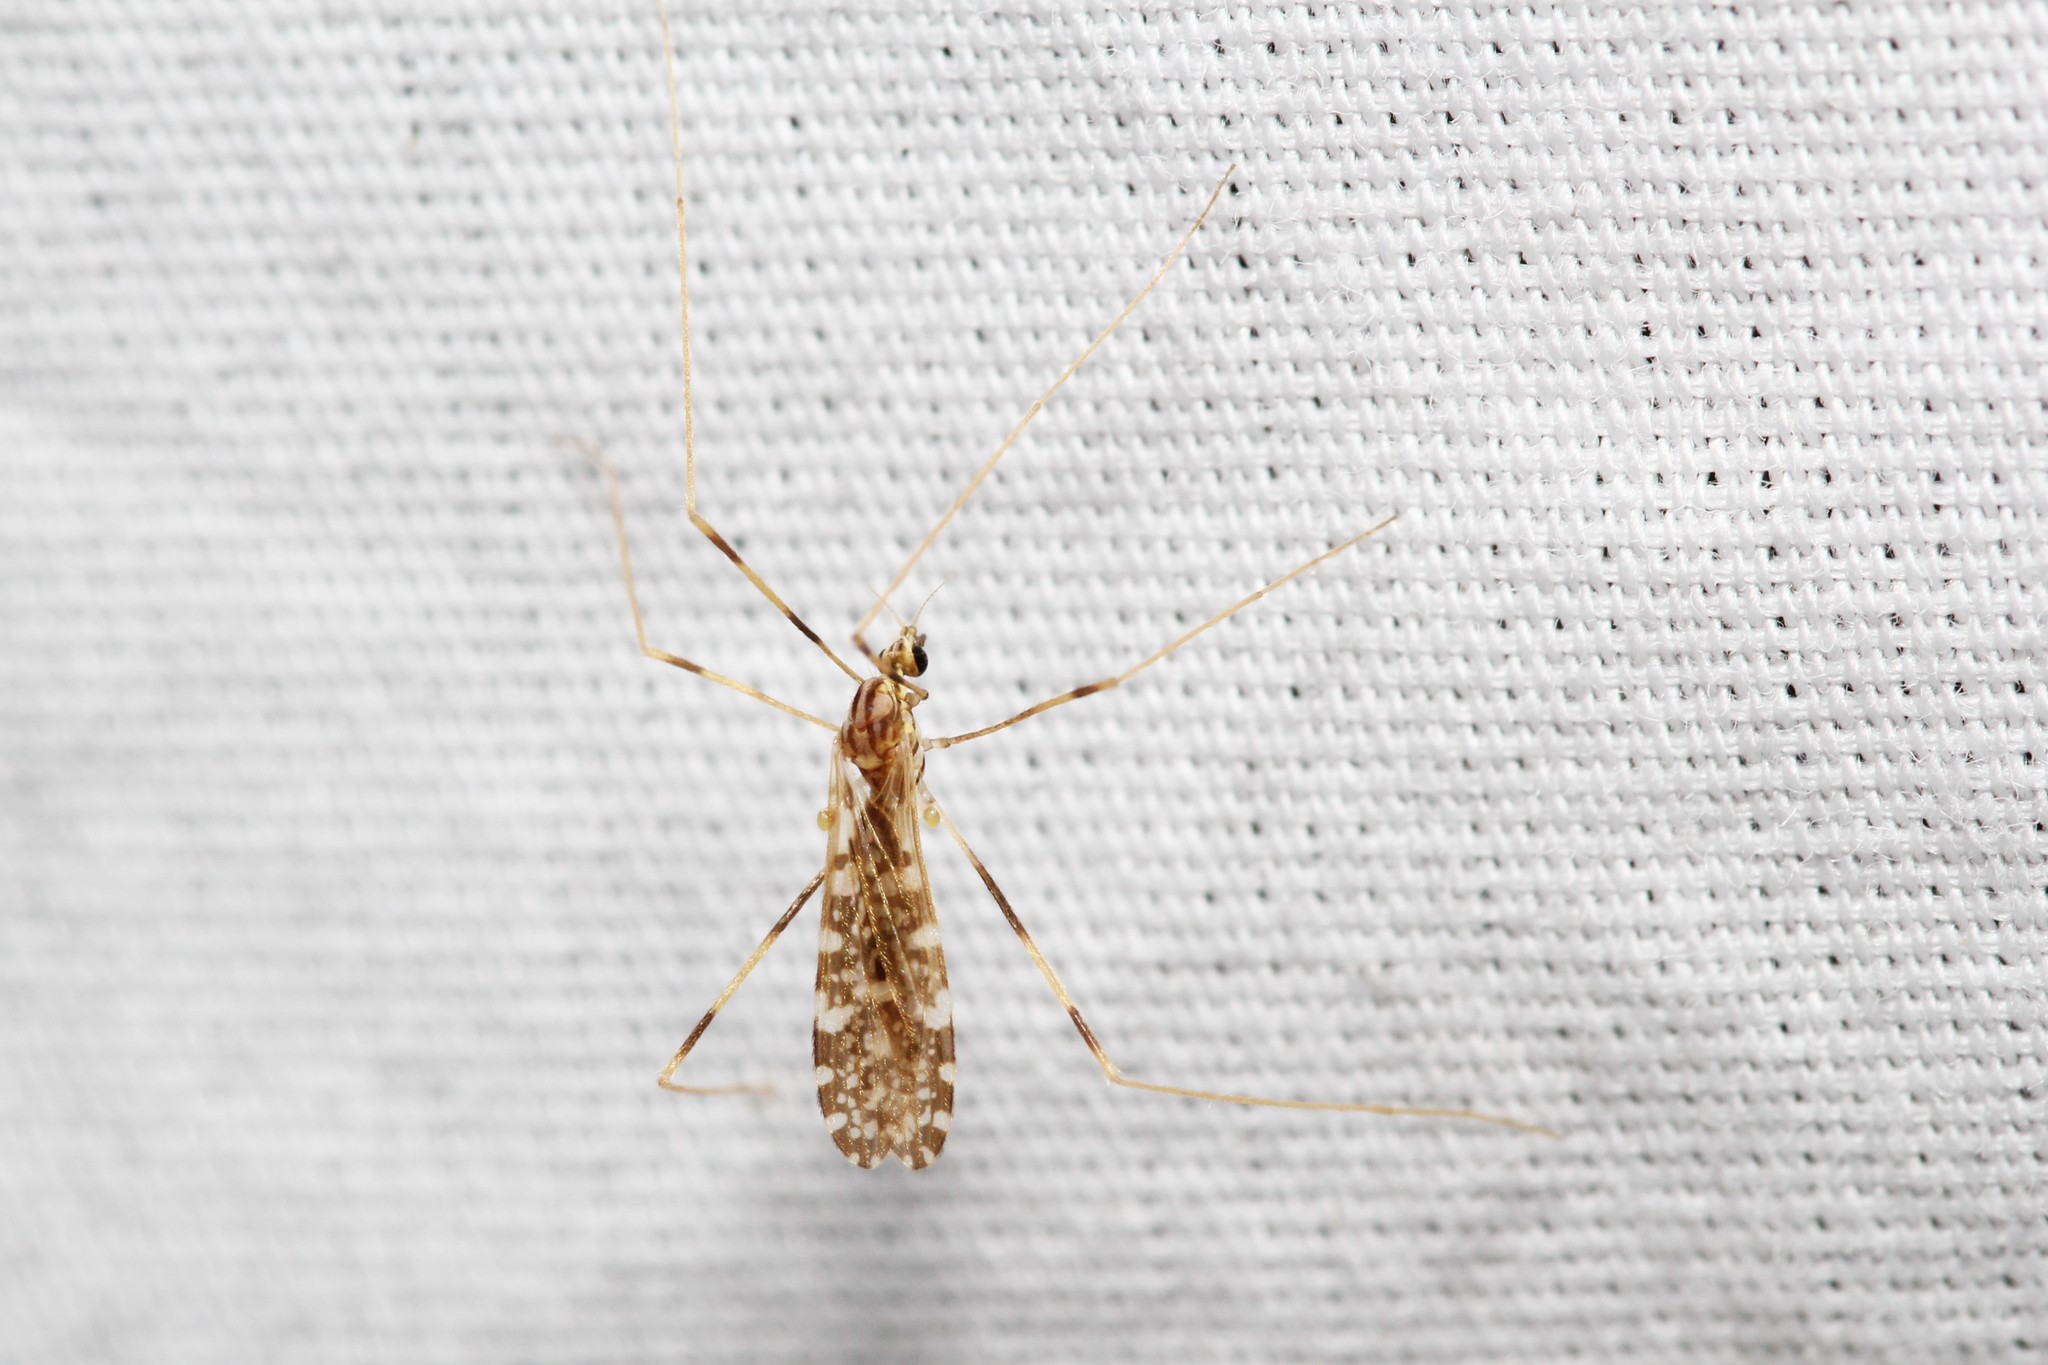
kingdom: Animalia
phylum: Arthropoda
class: Insecta
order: Diptera
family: Limoniidae
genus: Erioptera
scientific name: Erioptera caliptera
